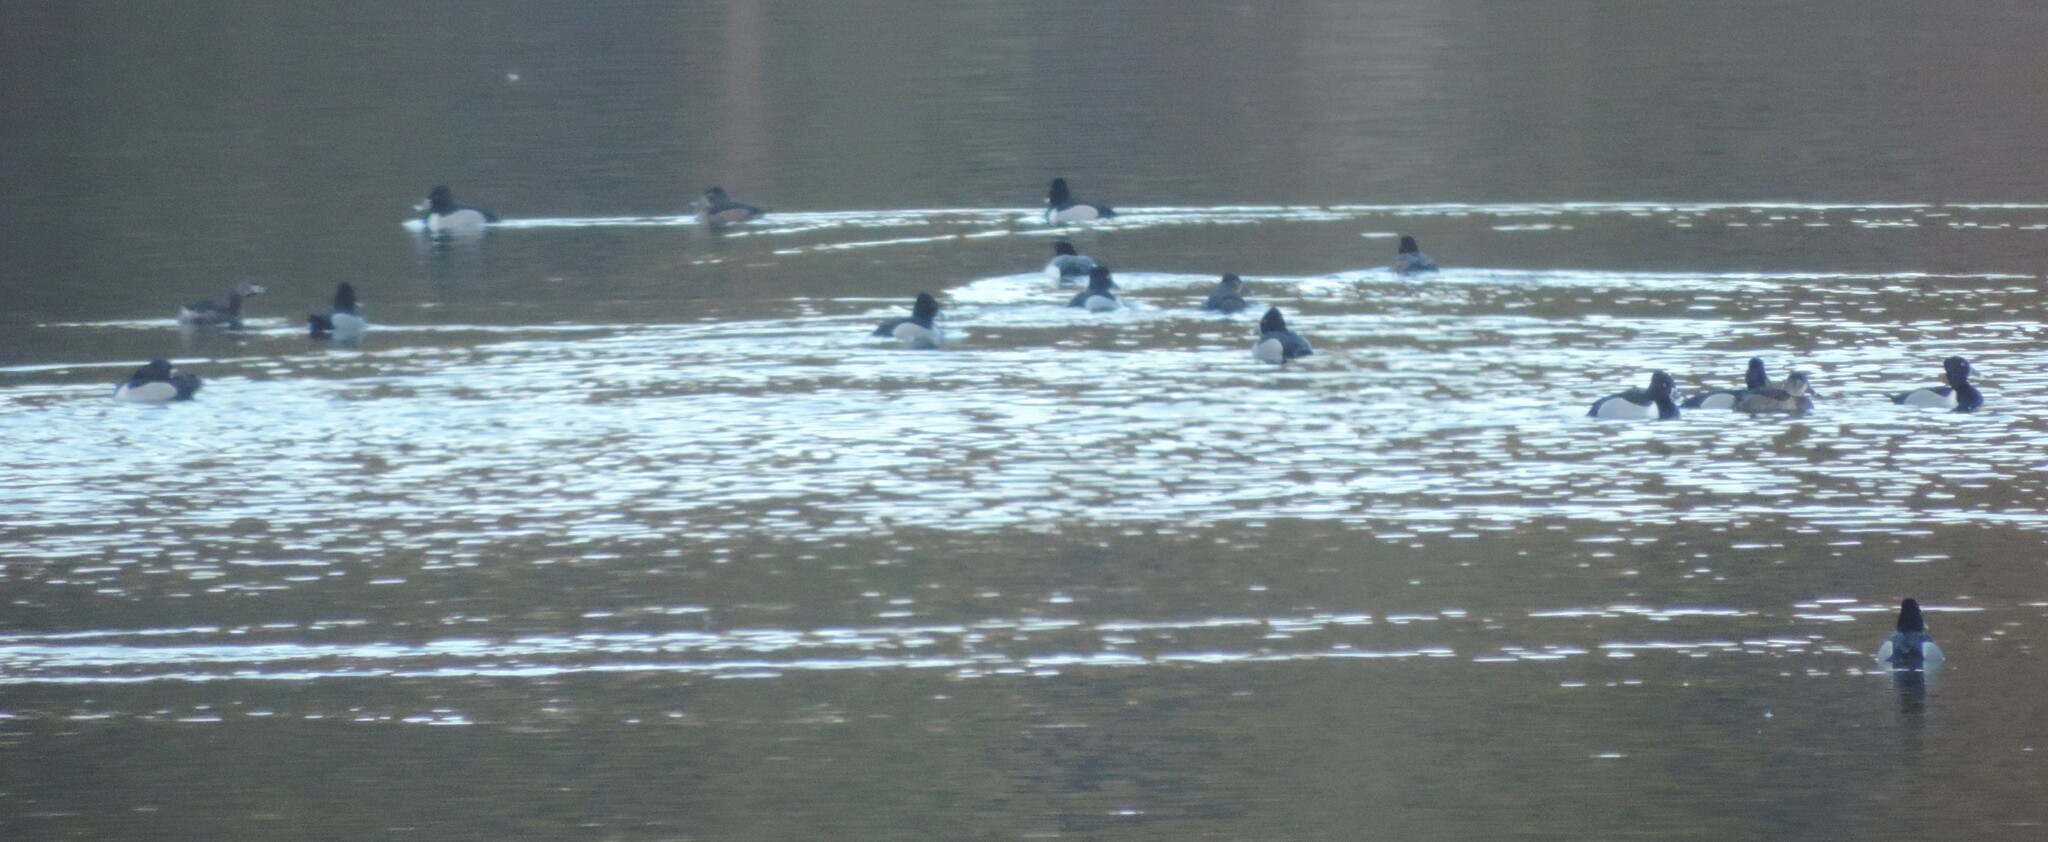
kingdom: Animalia
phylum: Chordata
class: Aves
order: Anseriformes
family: Anatidae
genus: Aythya
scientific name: Aythya collaris
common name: Ring-necked duck
